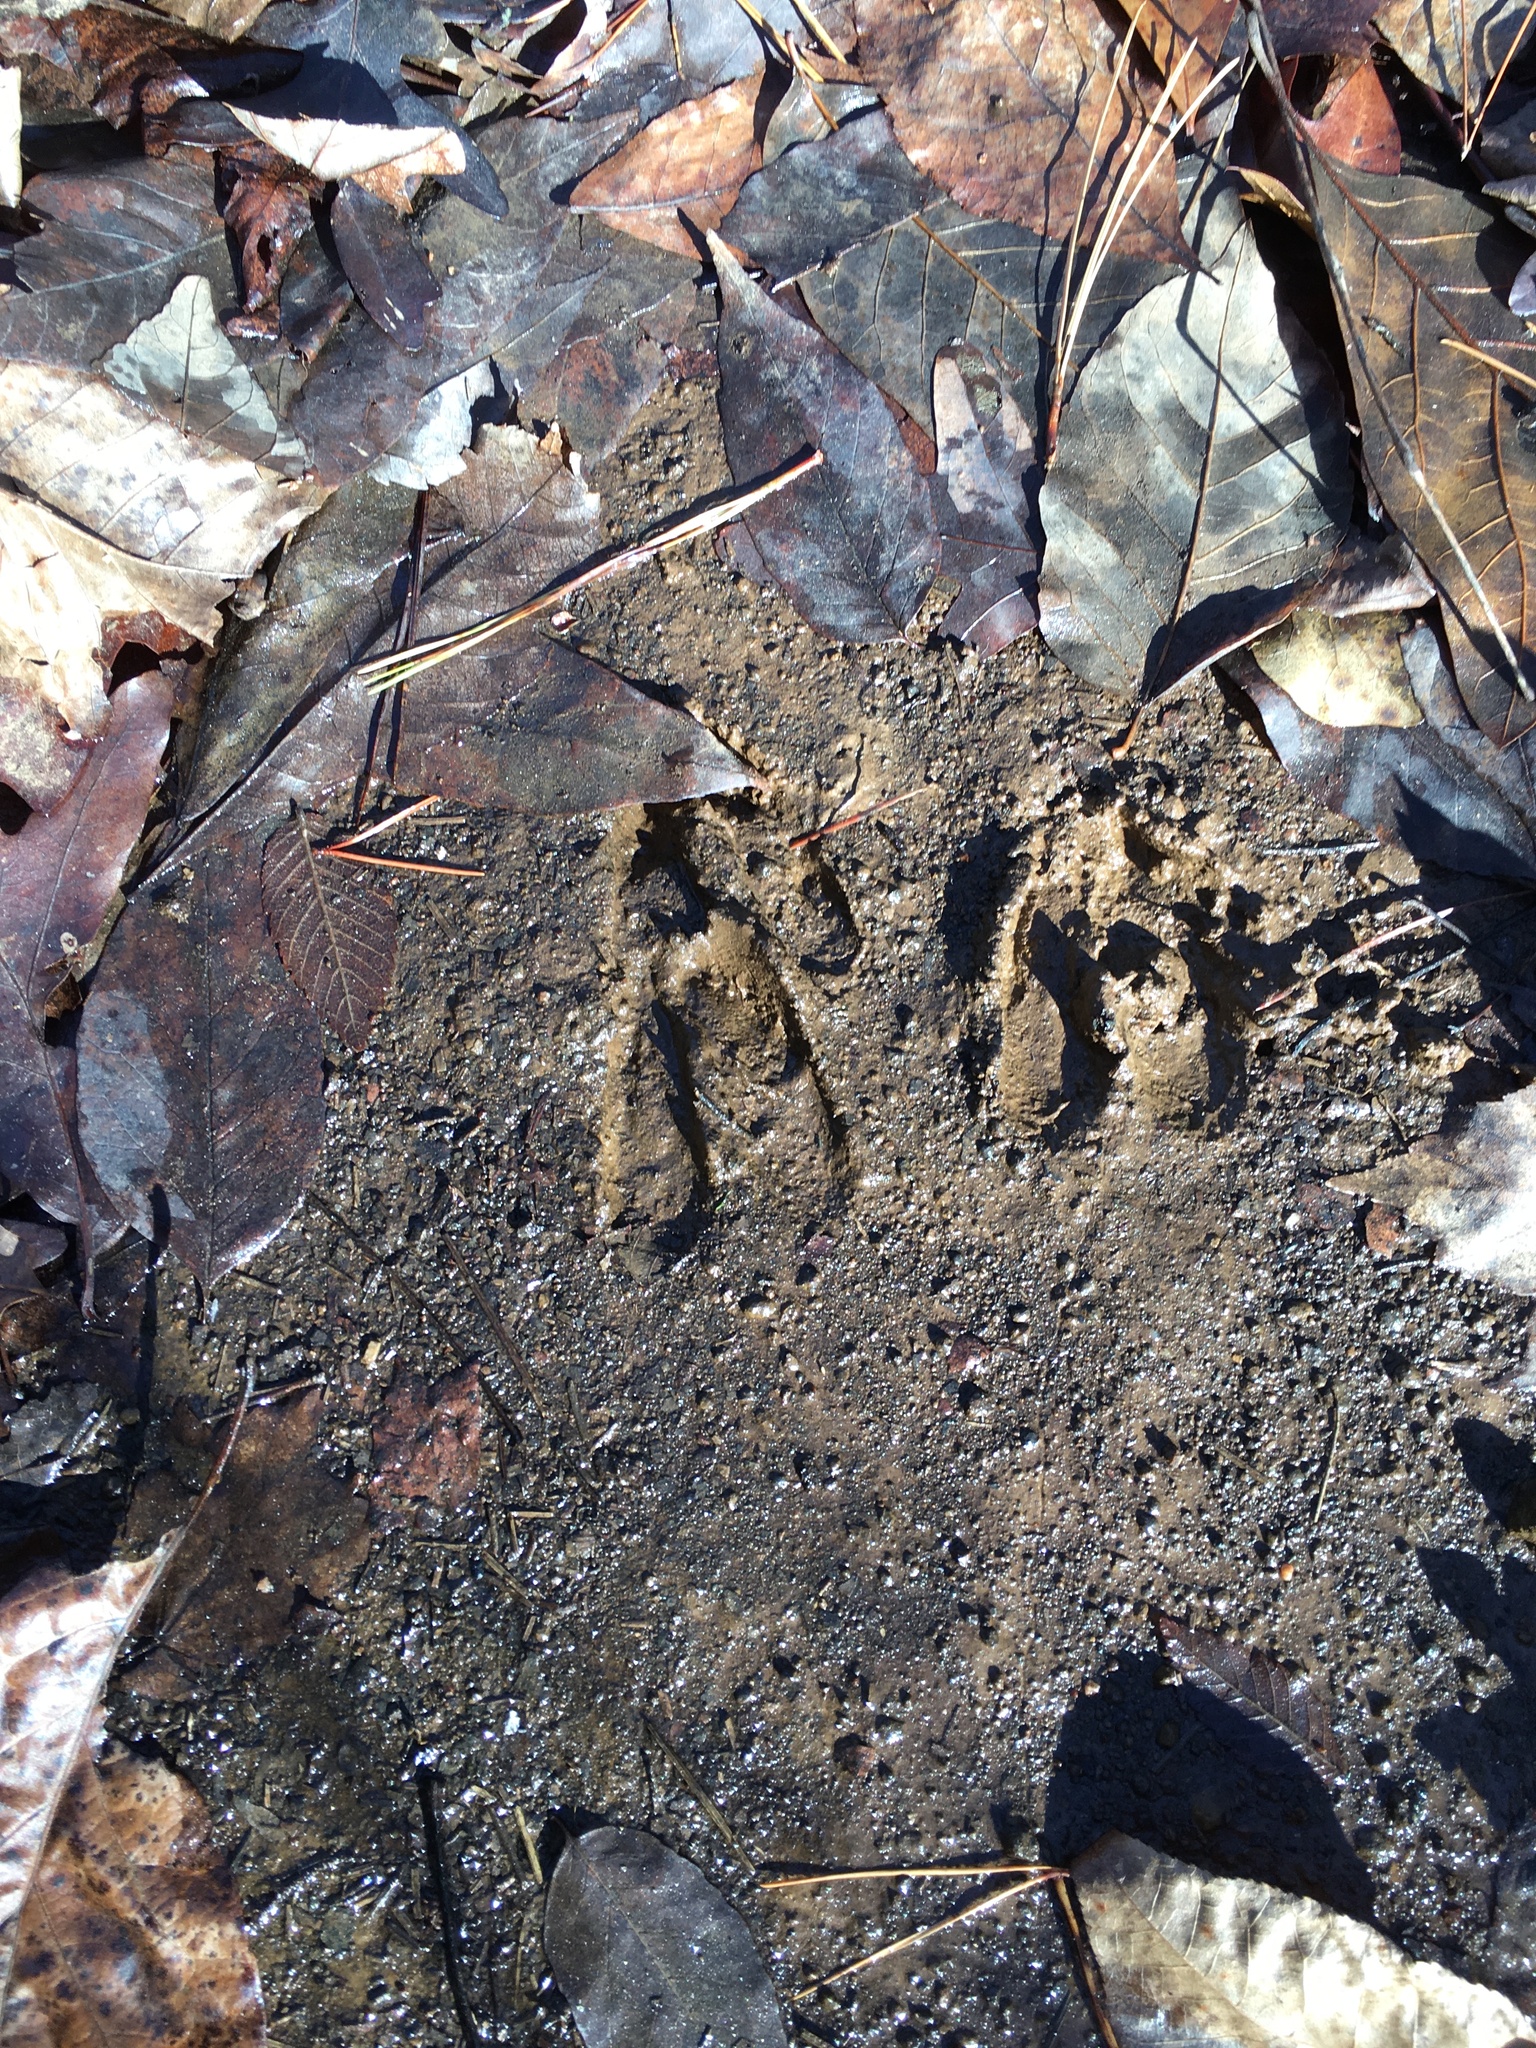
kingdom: Animalia
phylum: Chordata
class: Mammalia
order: Artiodactyla
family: Cervidae
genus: Odocoileus
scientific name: Odocoileus virginianus
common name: White-tailed deer
